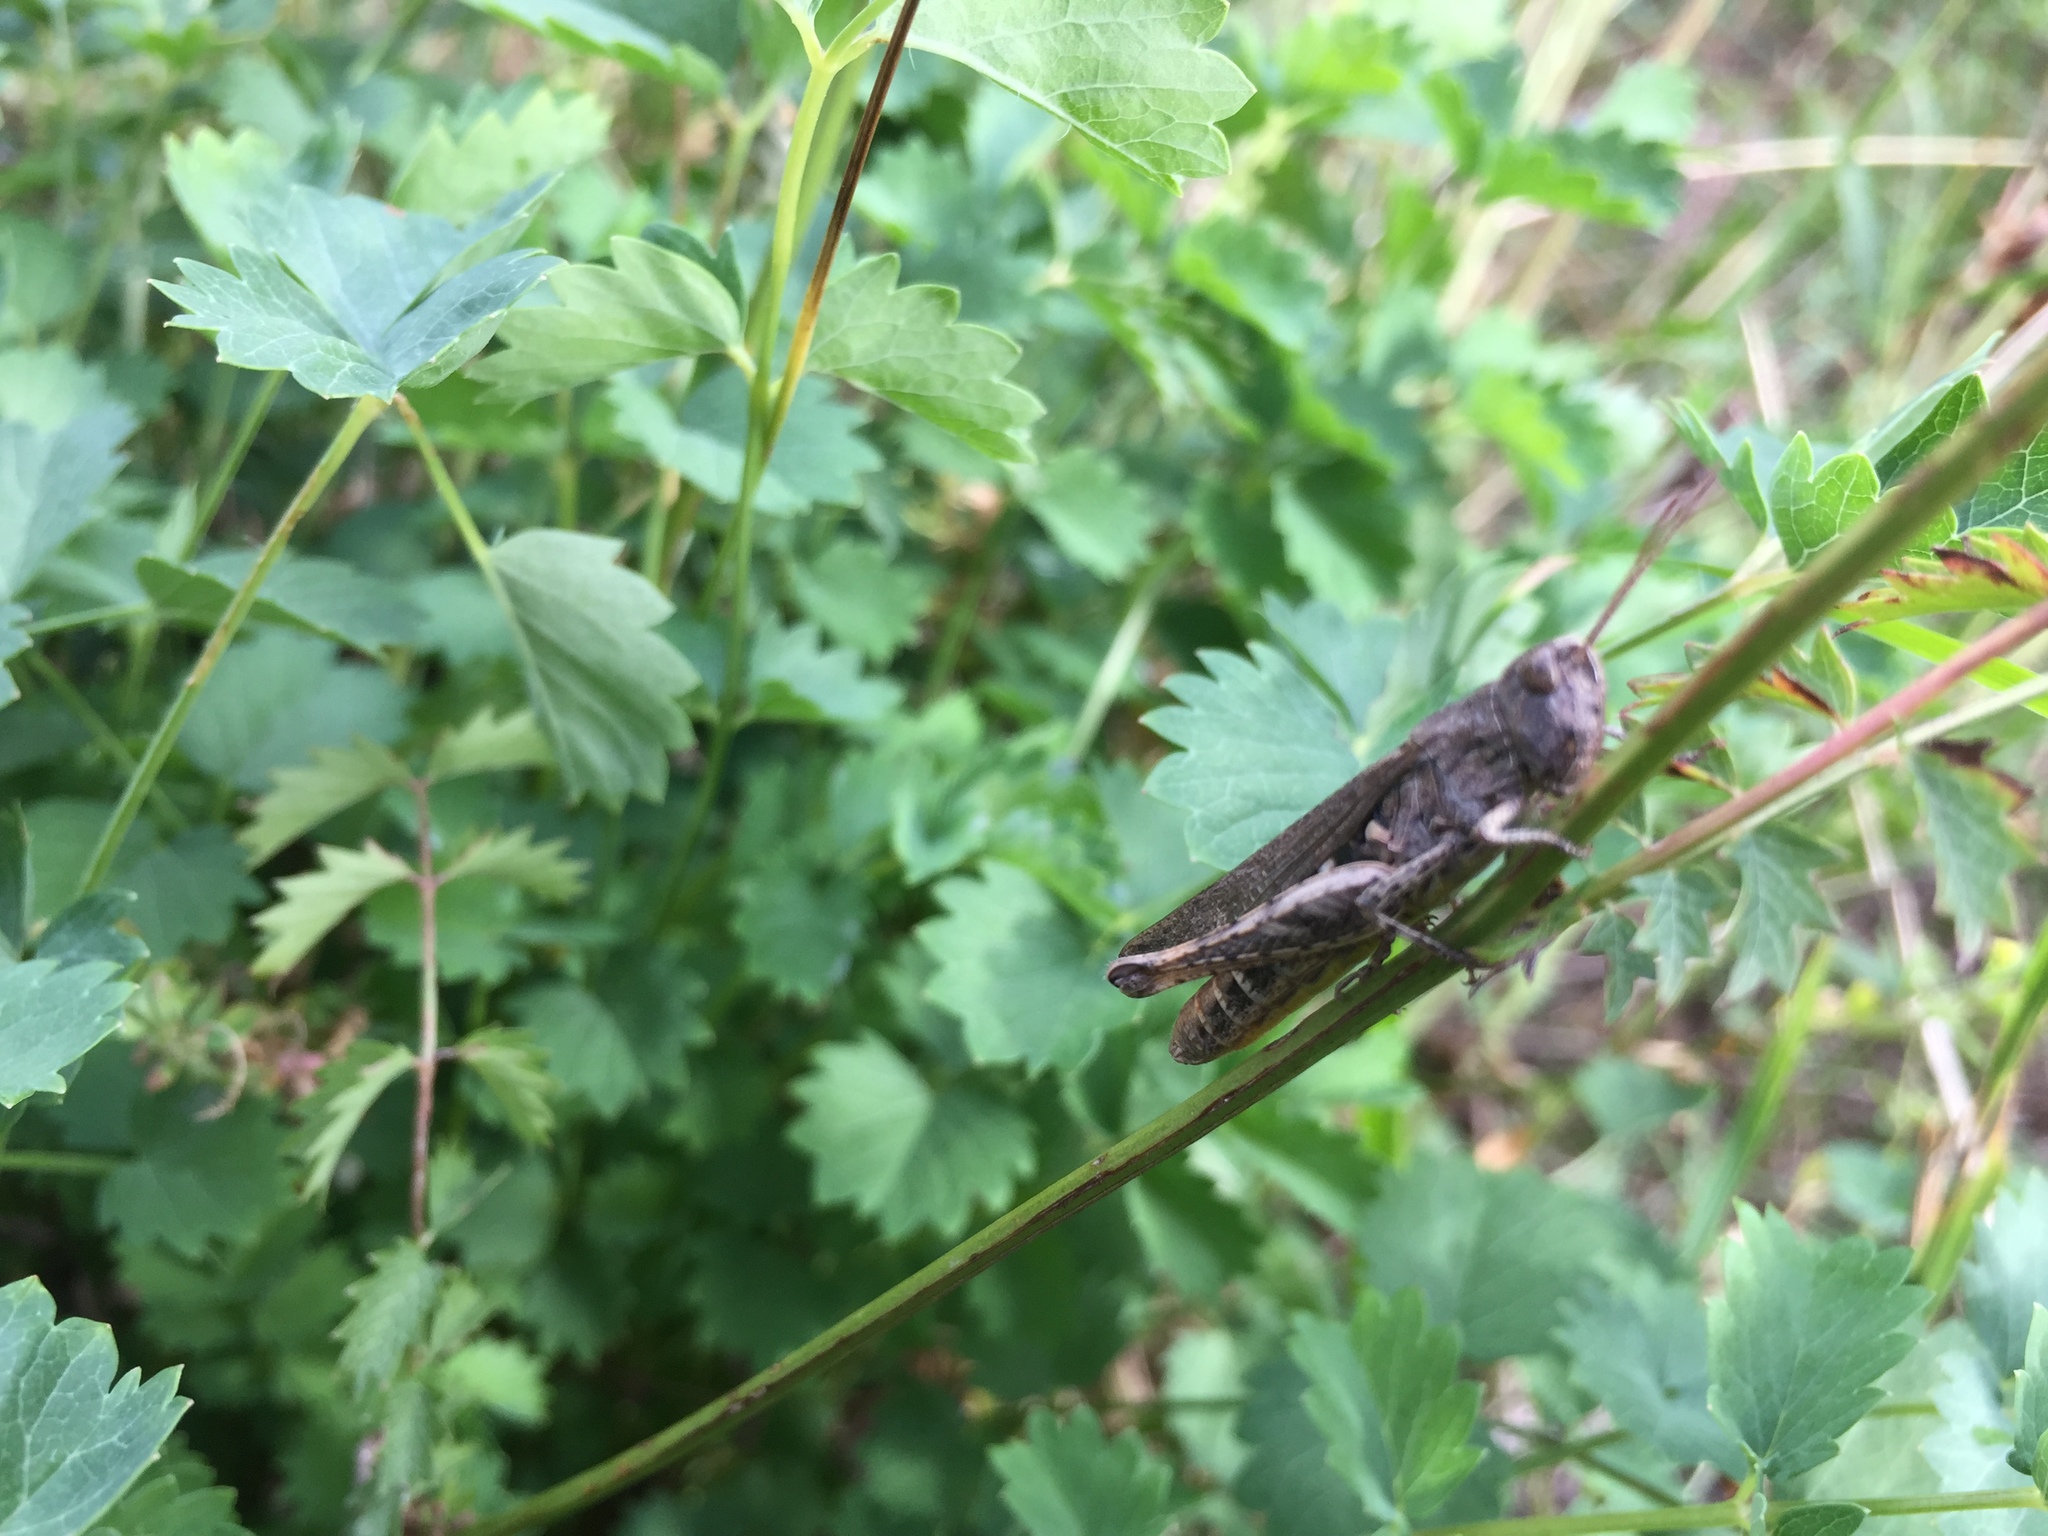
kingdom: Animalia
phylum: Arthropoda
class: Insecta
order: Orthoptera
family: Acrididae
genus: Omocestus
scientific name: Omocestus rufipes
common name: Woodland grasshopper
